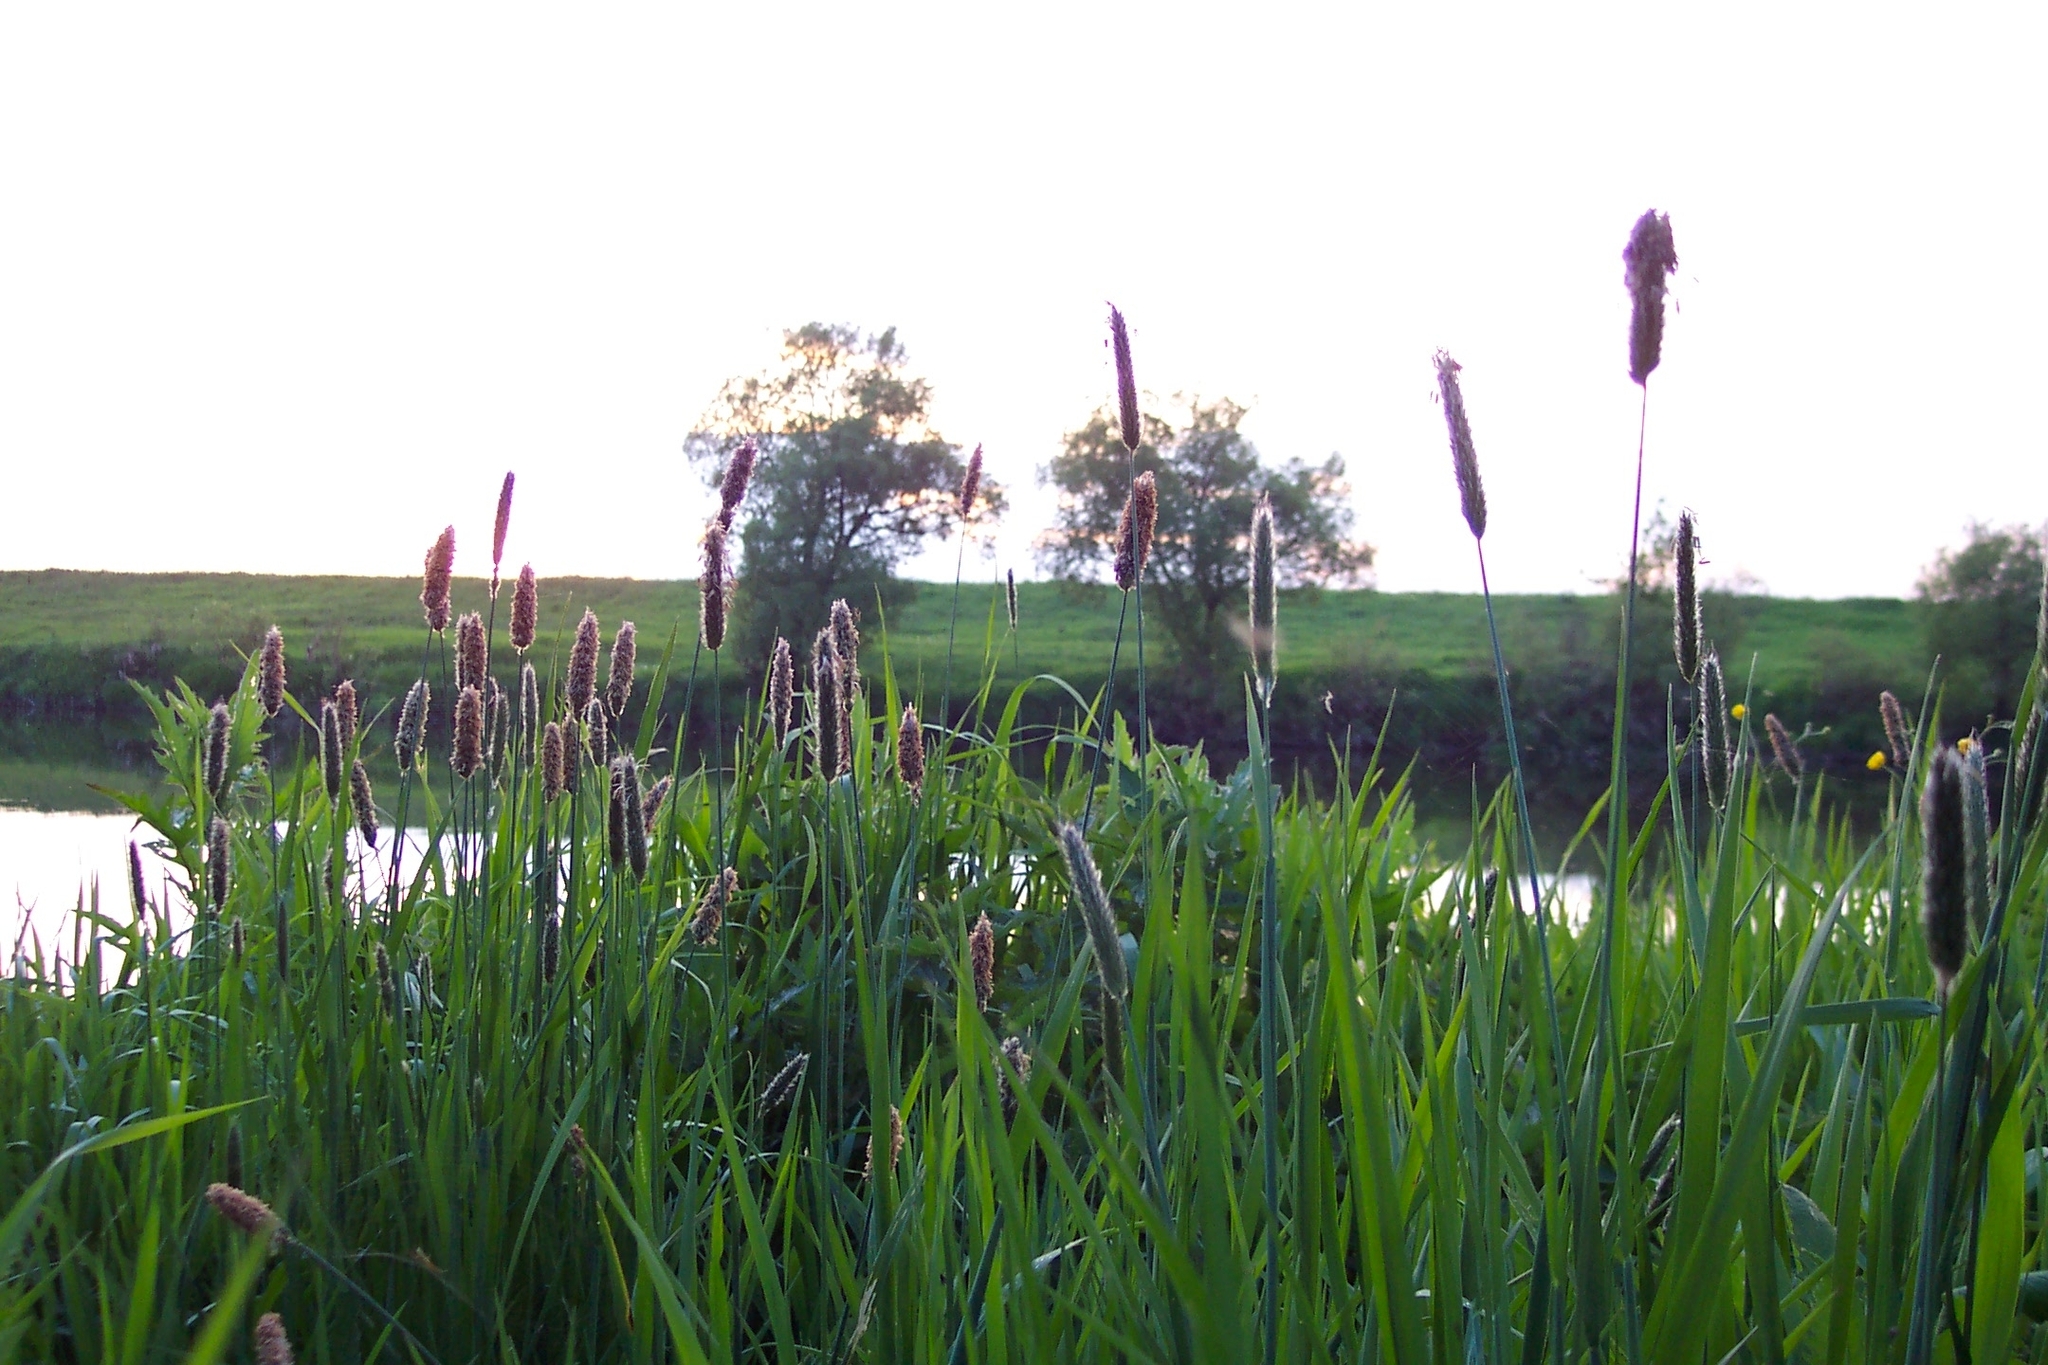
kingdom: Plantae
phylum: Tracheophyta
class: Liliopsida
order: Poales
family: Poaceae
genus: Alopecurus
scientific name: Alopecurus pratensis
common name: Meadow foxtail
